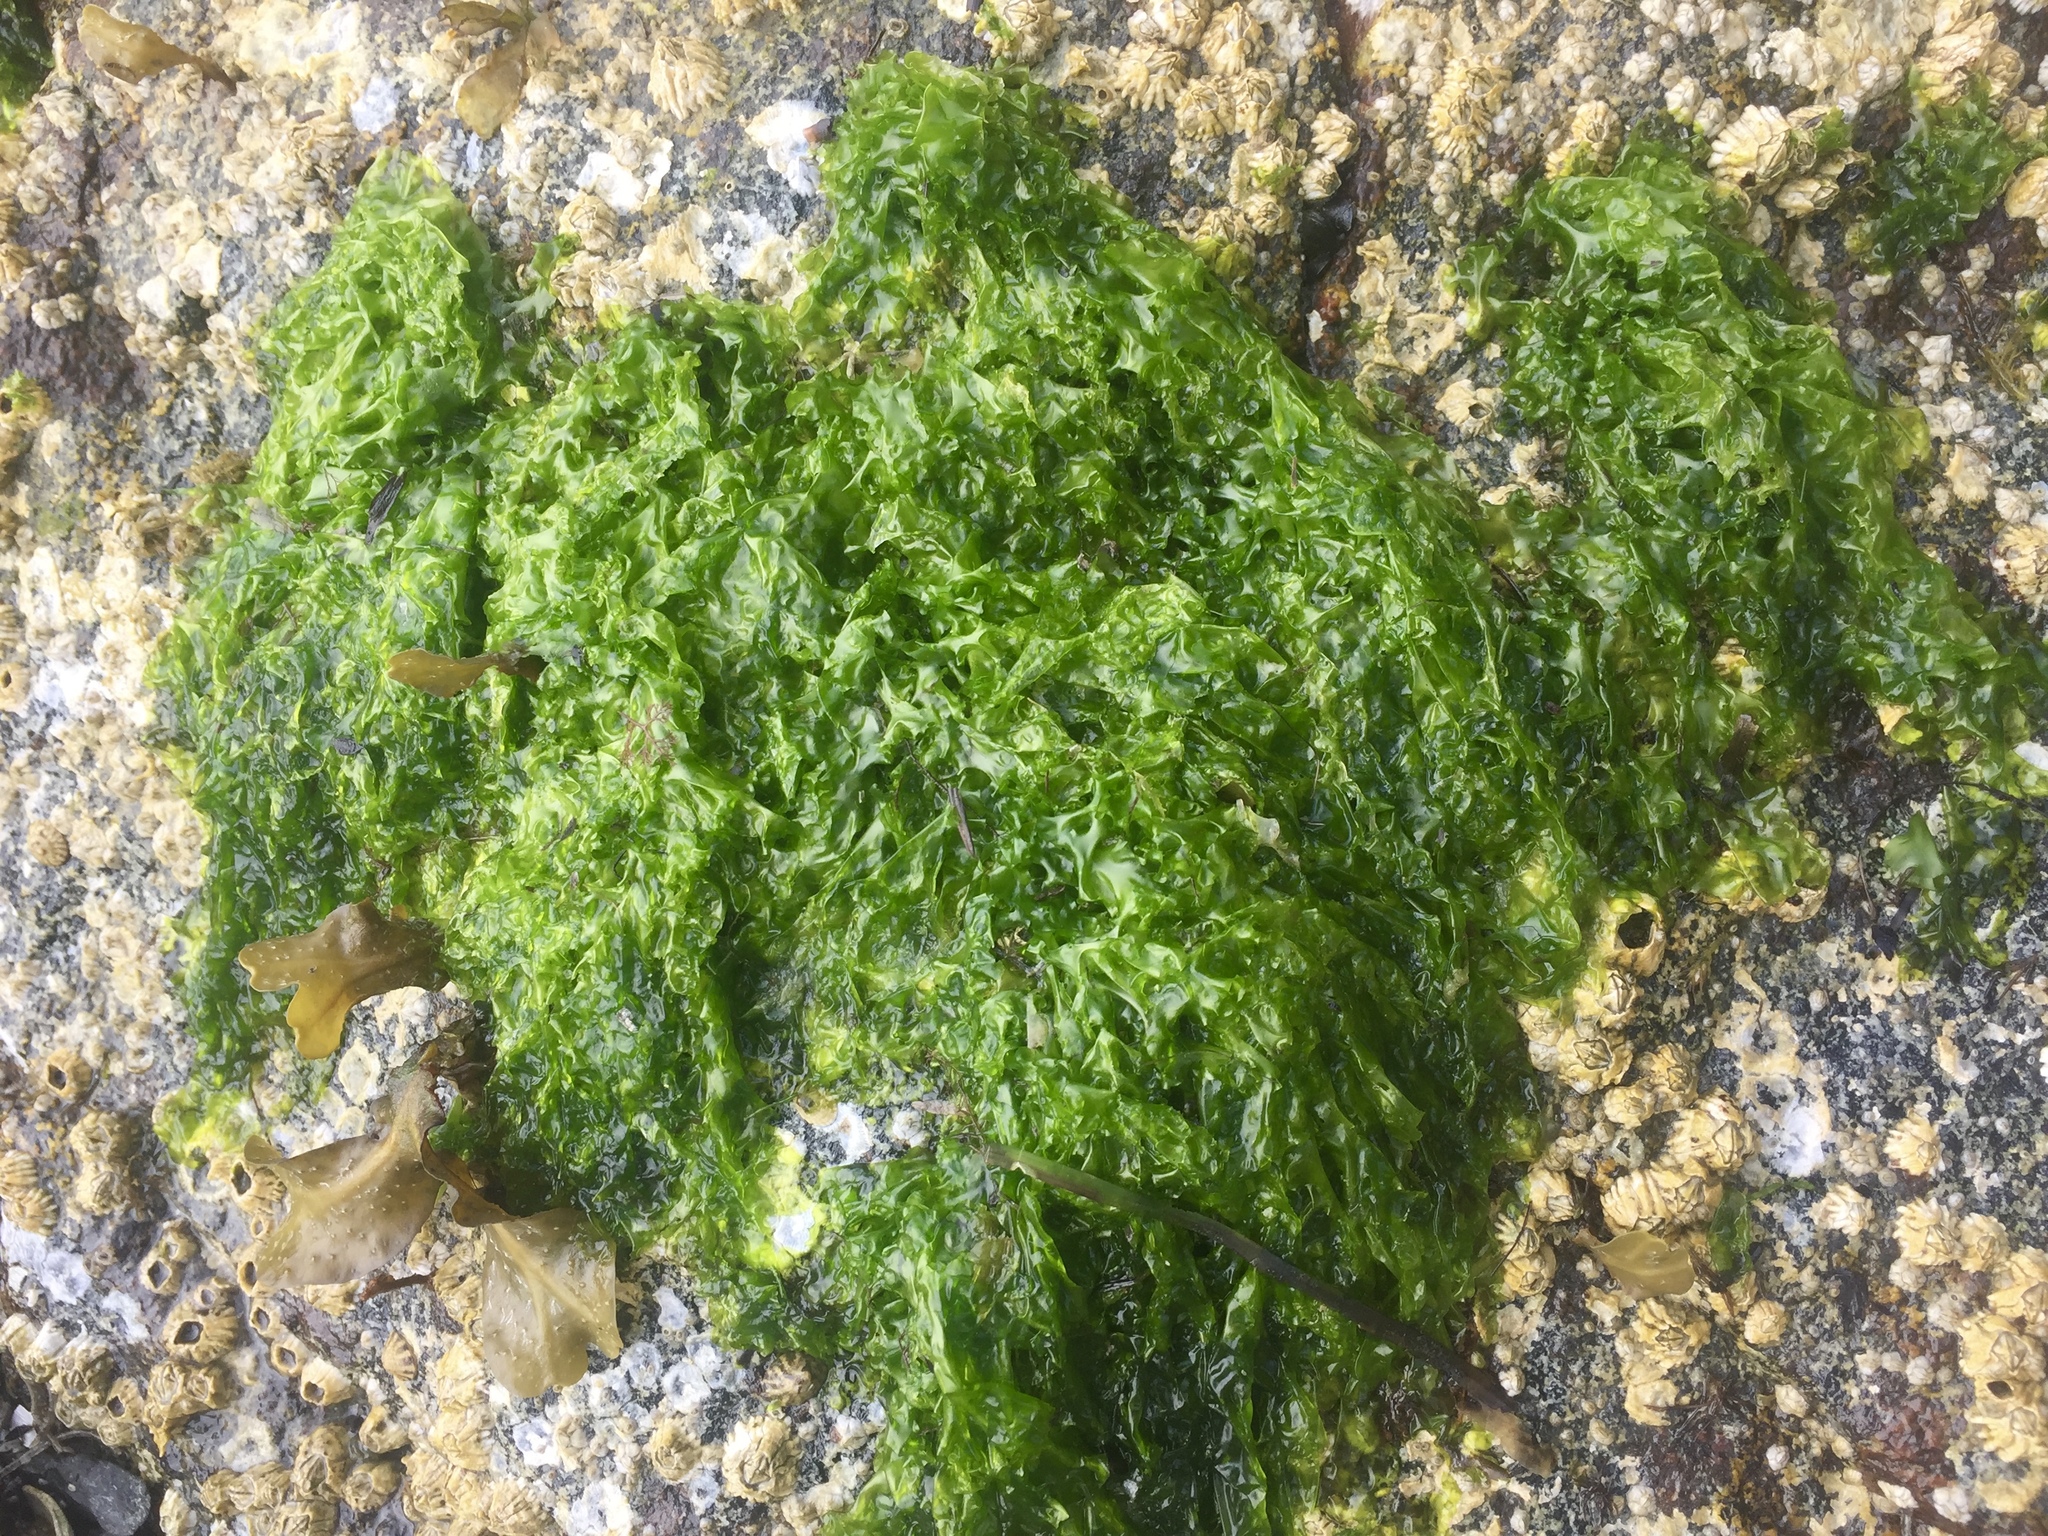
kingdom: Plantae
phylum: Chlorophyta
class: Ulvophyceae
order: Ulvales
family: Ulvaceae
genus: Ulva
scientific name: Ulva lactuca
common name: Sea lettuce
